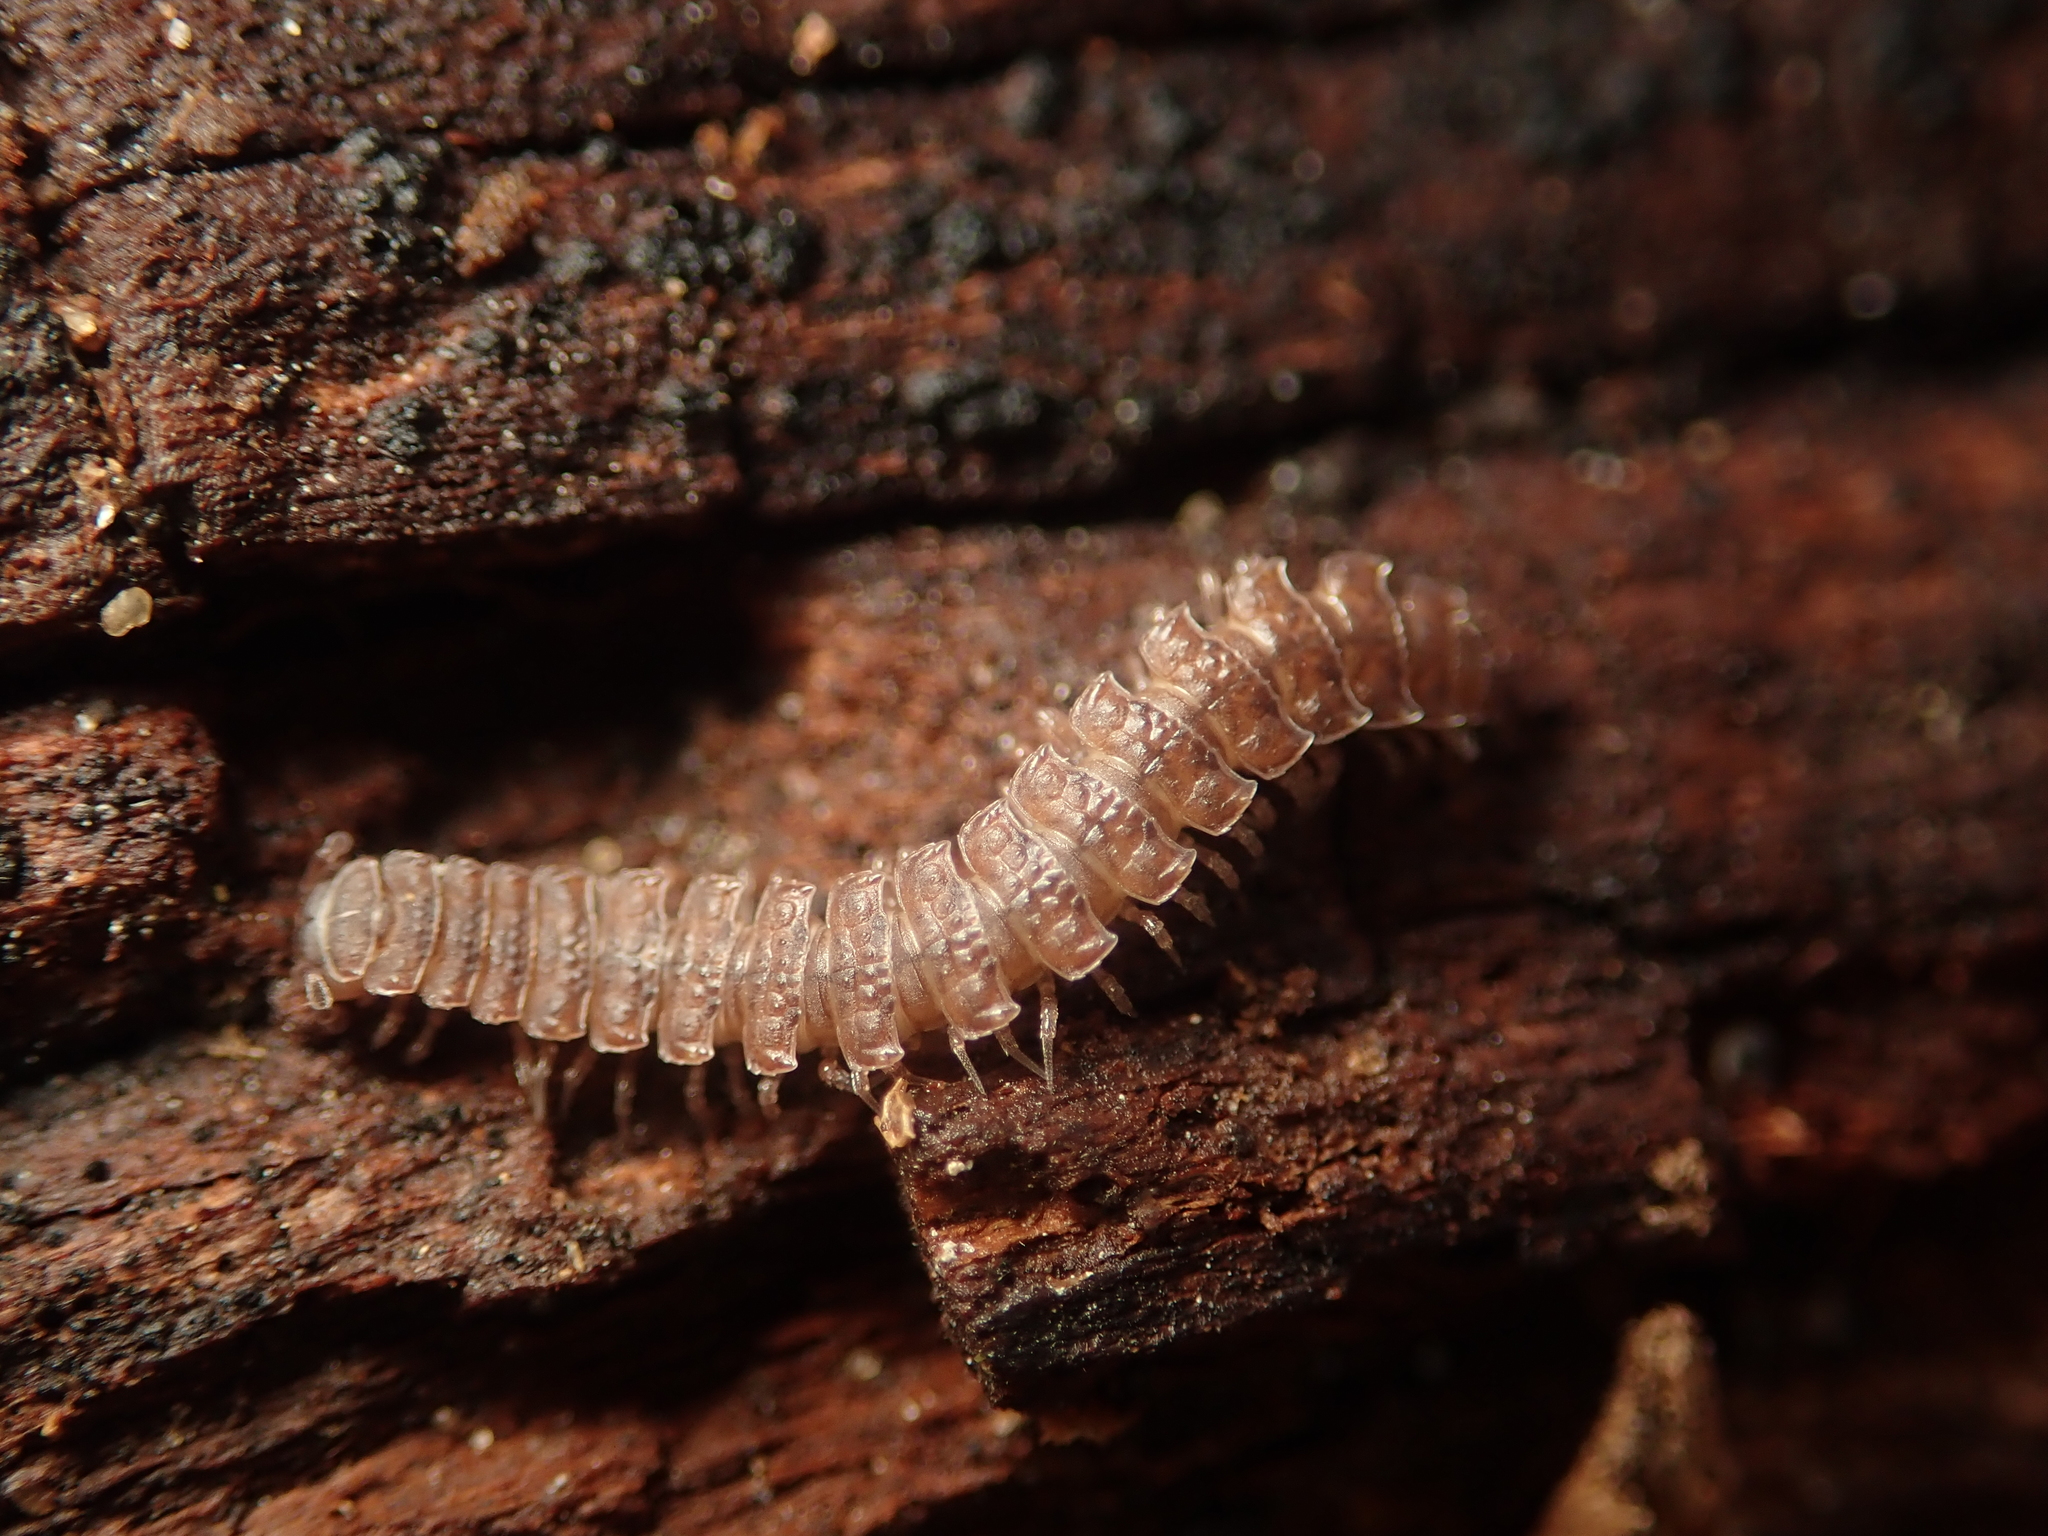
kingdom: Animalia
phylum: Arthropoda
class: Diplopoda
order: Polydesmida
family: Polydesmidae
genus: Polydesmus
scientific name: Polydesmus angustus
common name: Flat millipede
